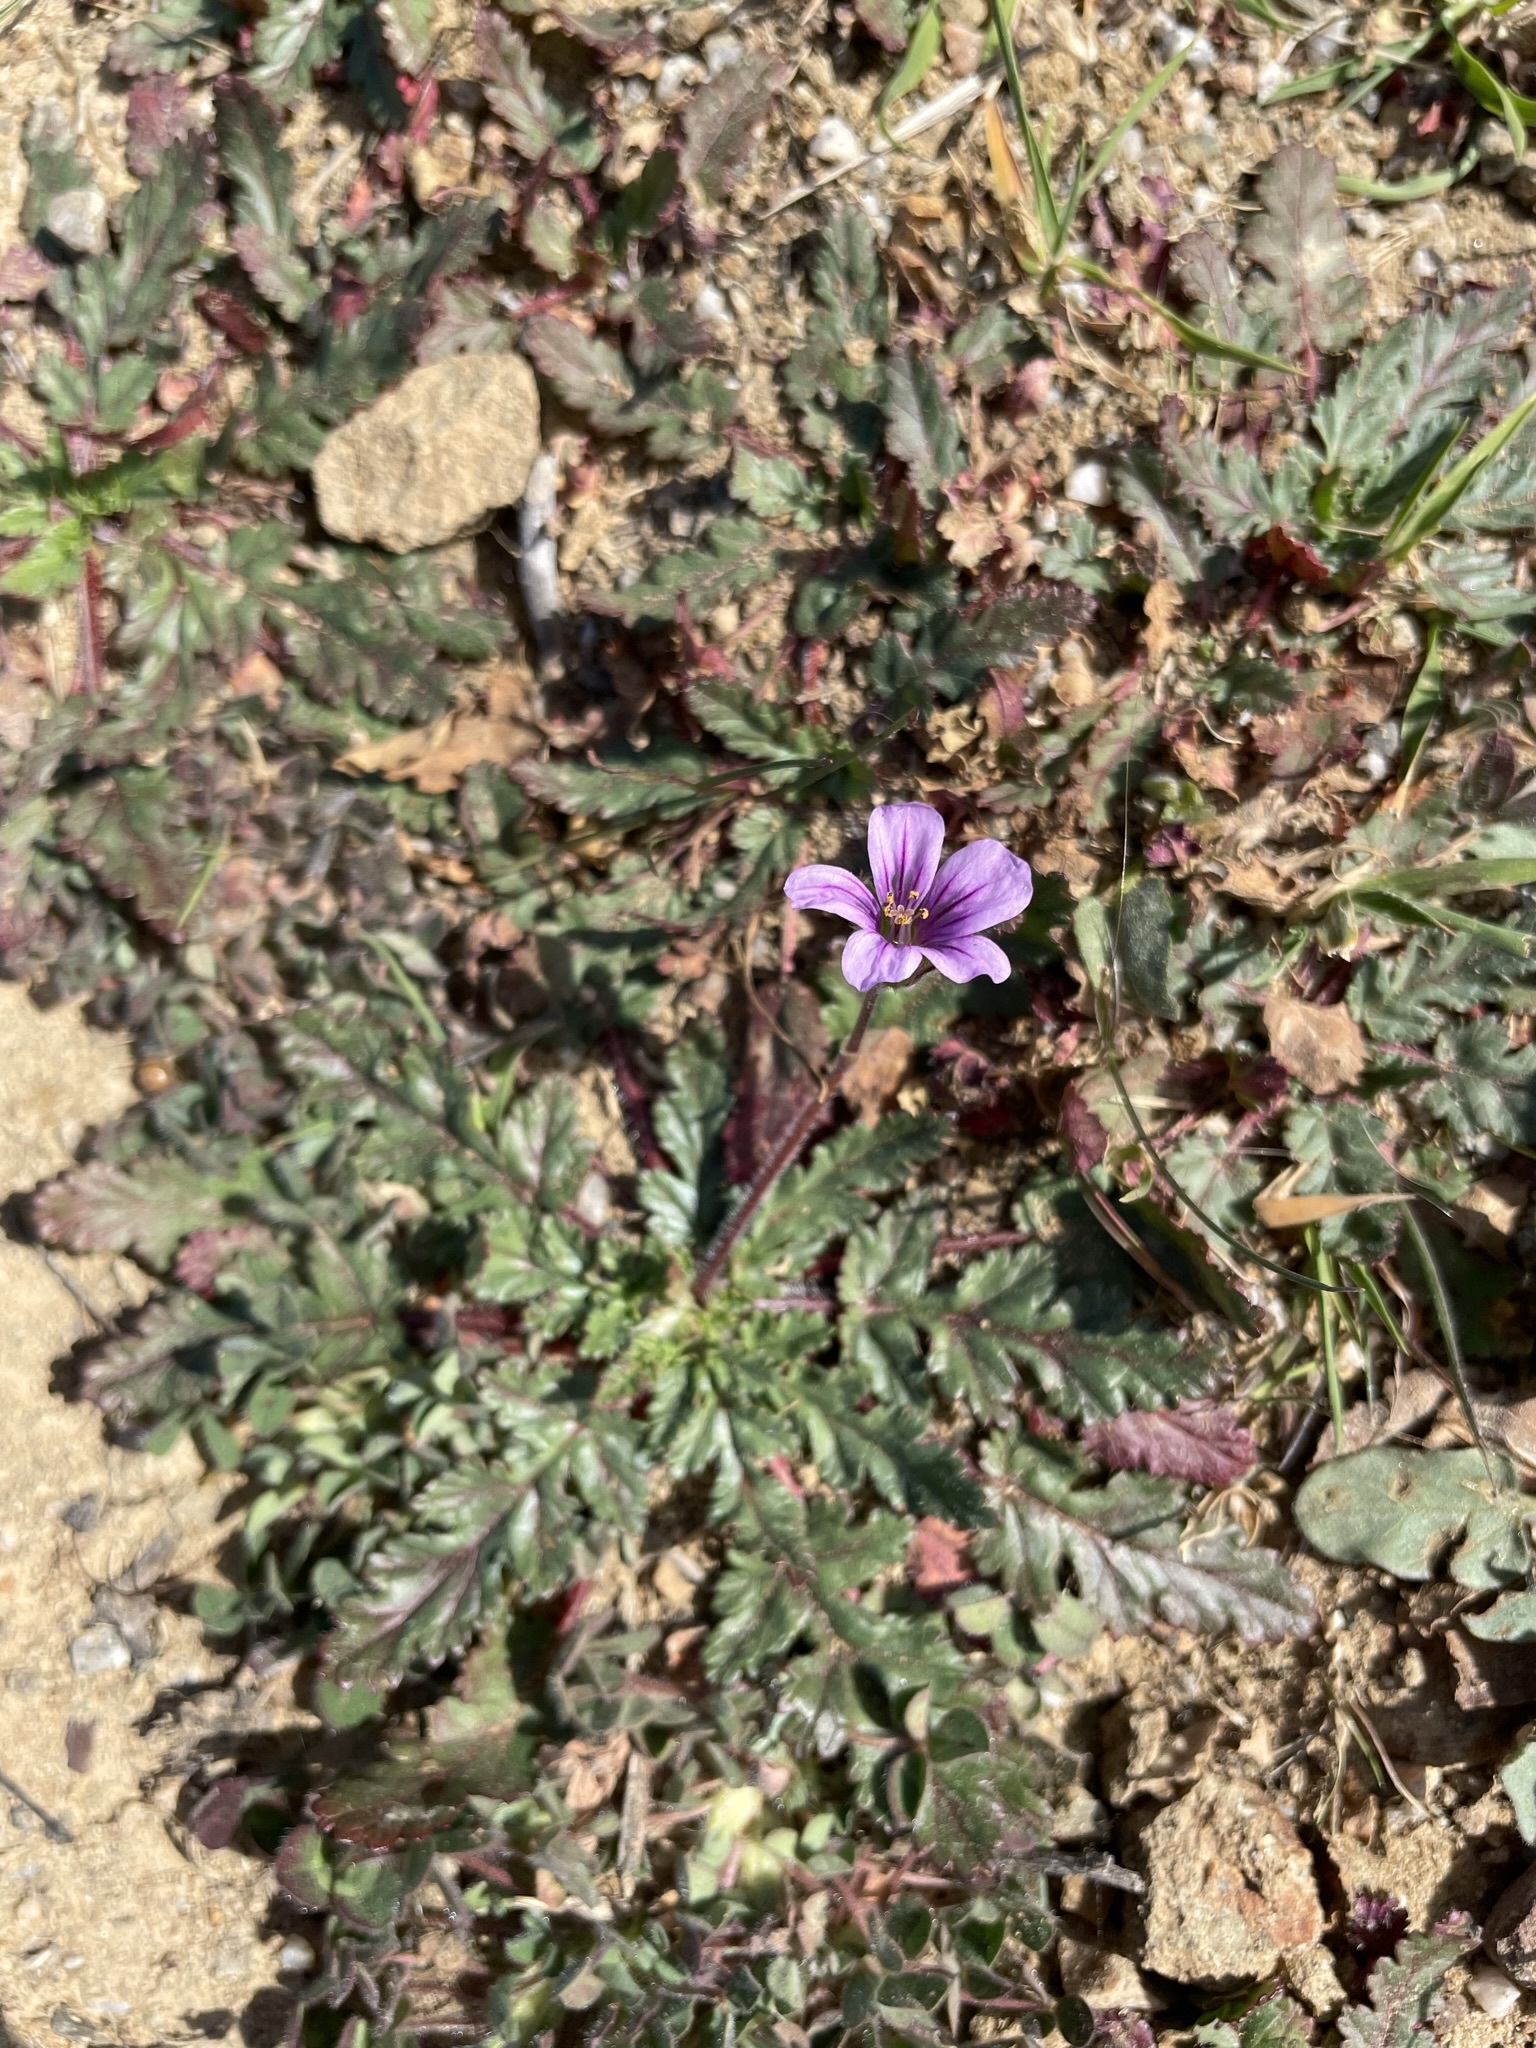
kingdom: Plantae
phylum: Tracheophyta
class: Magnoliopsida
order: Geraniales
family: Geraniaceae
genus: Erodium
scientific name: Erodium botrys
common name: Mediterranean stork's-bill
